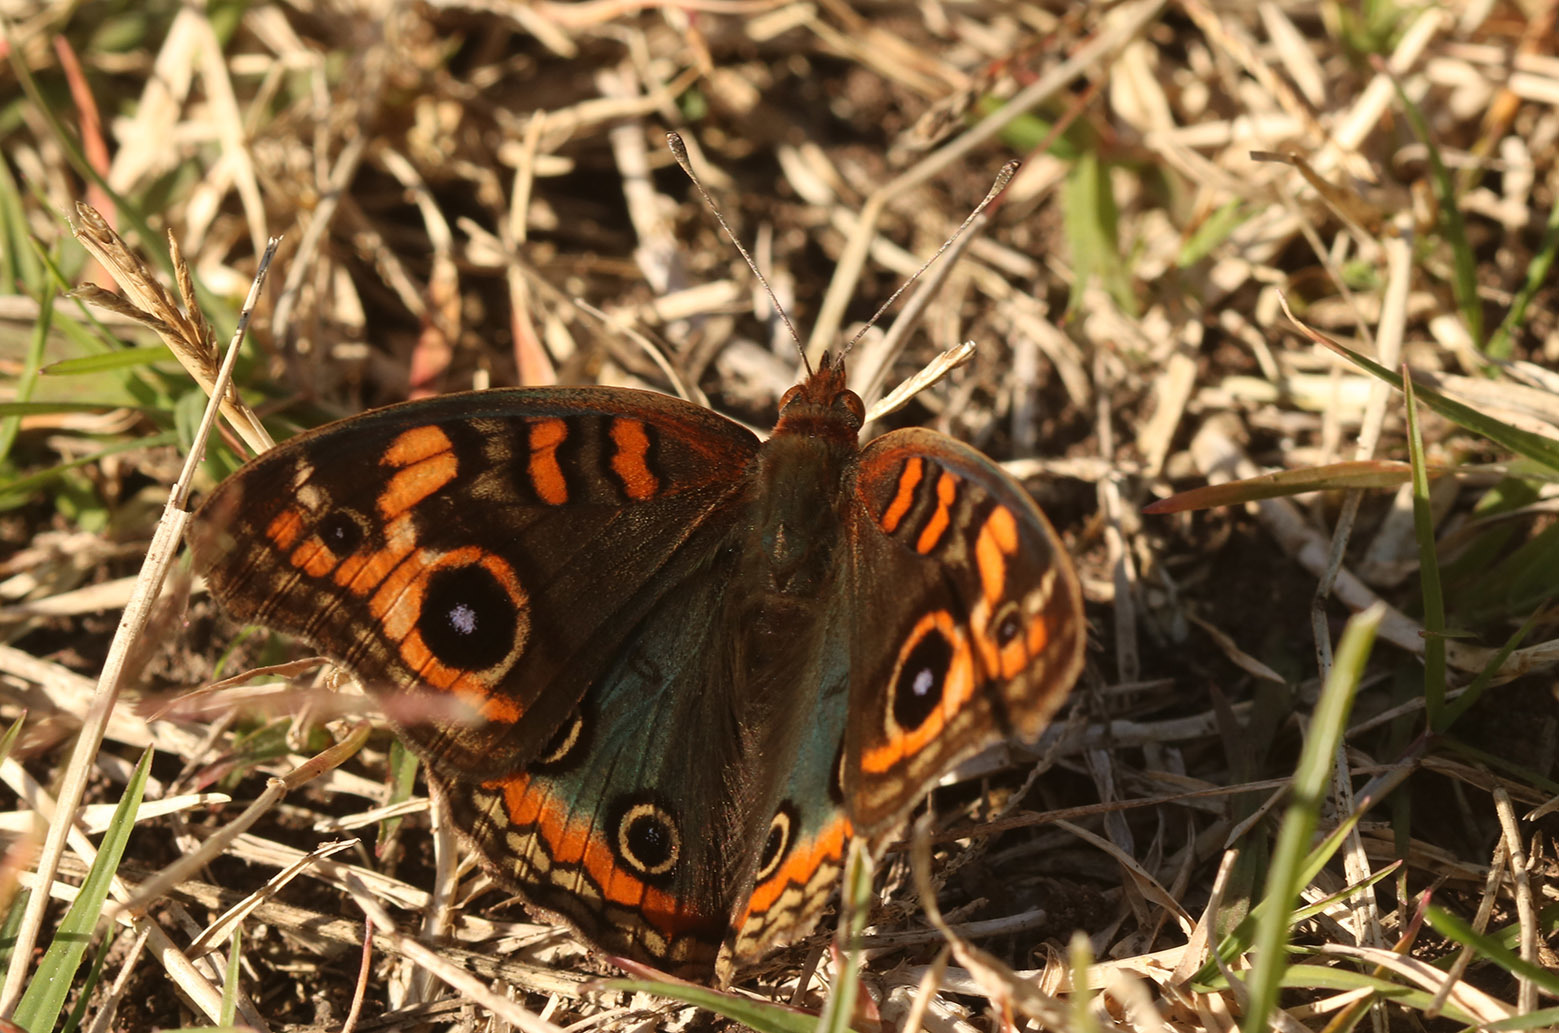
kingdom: Animalia
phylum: Arthropoda
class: Insecta
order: Lepidoptera
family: Nymphalidae
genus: Junonia
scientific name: Junonia lavinia
